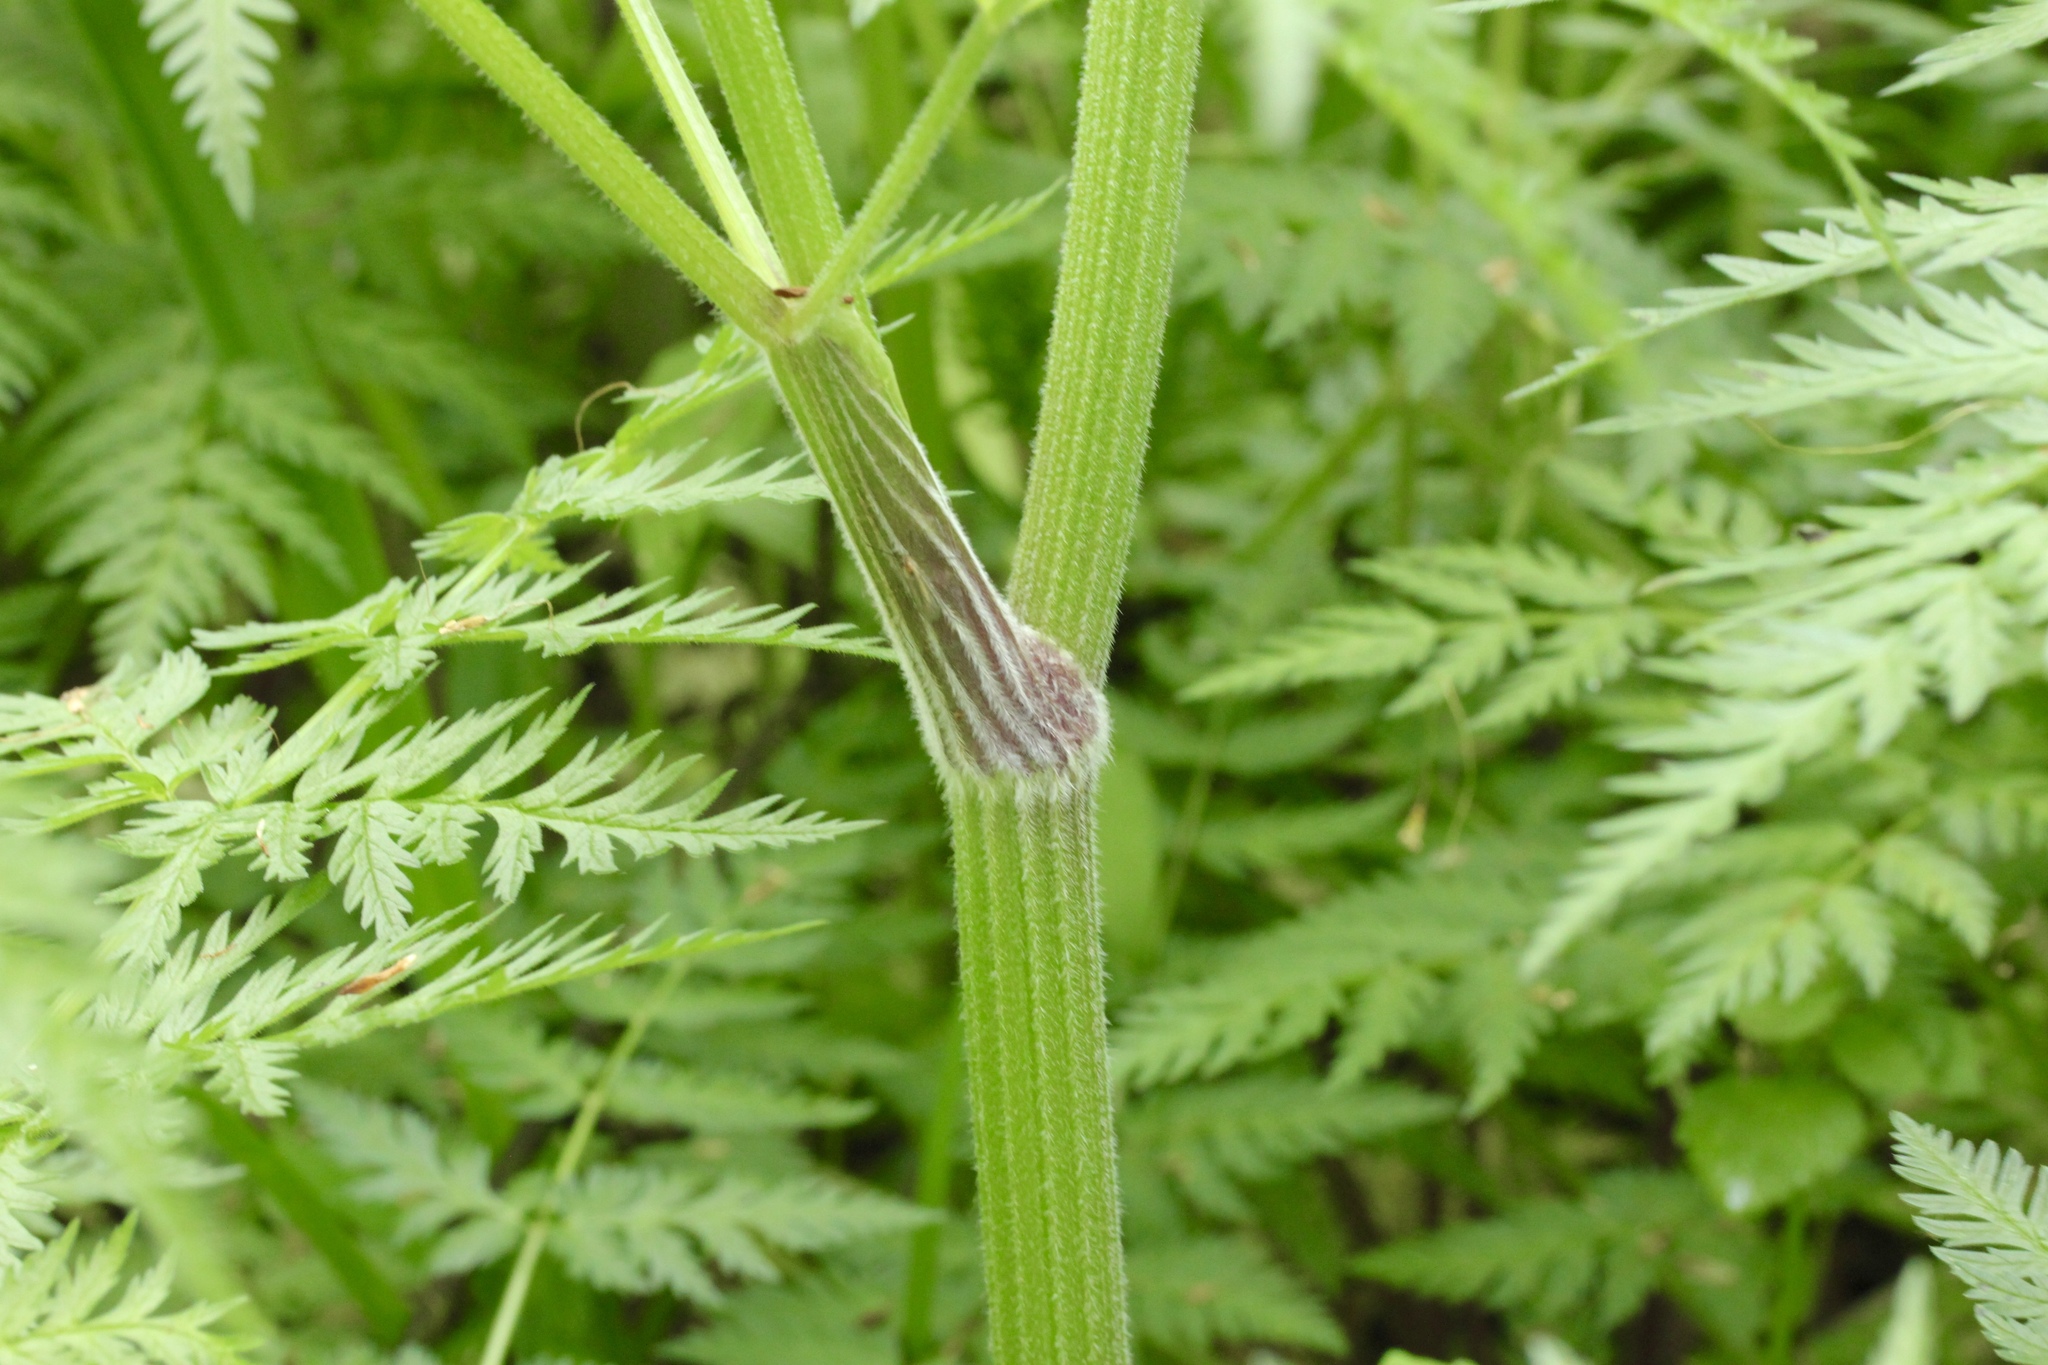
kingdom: Plantae
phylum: Tracheophyta
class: Magnoliopsida
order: Apiales
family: Apiaceae
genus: Anthriscus
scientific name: Anthriscus sylvestris
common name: Cow parsley
